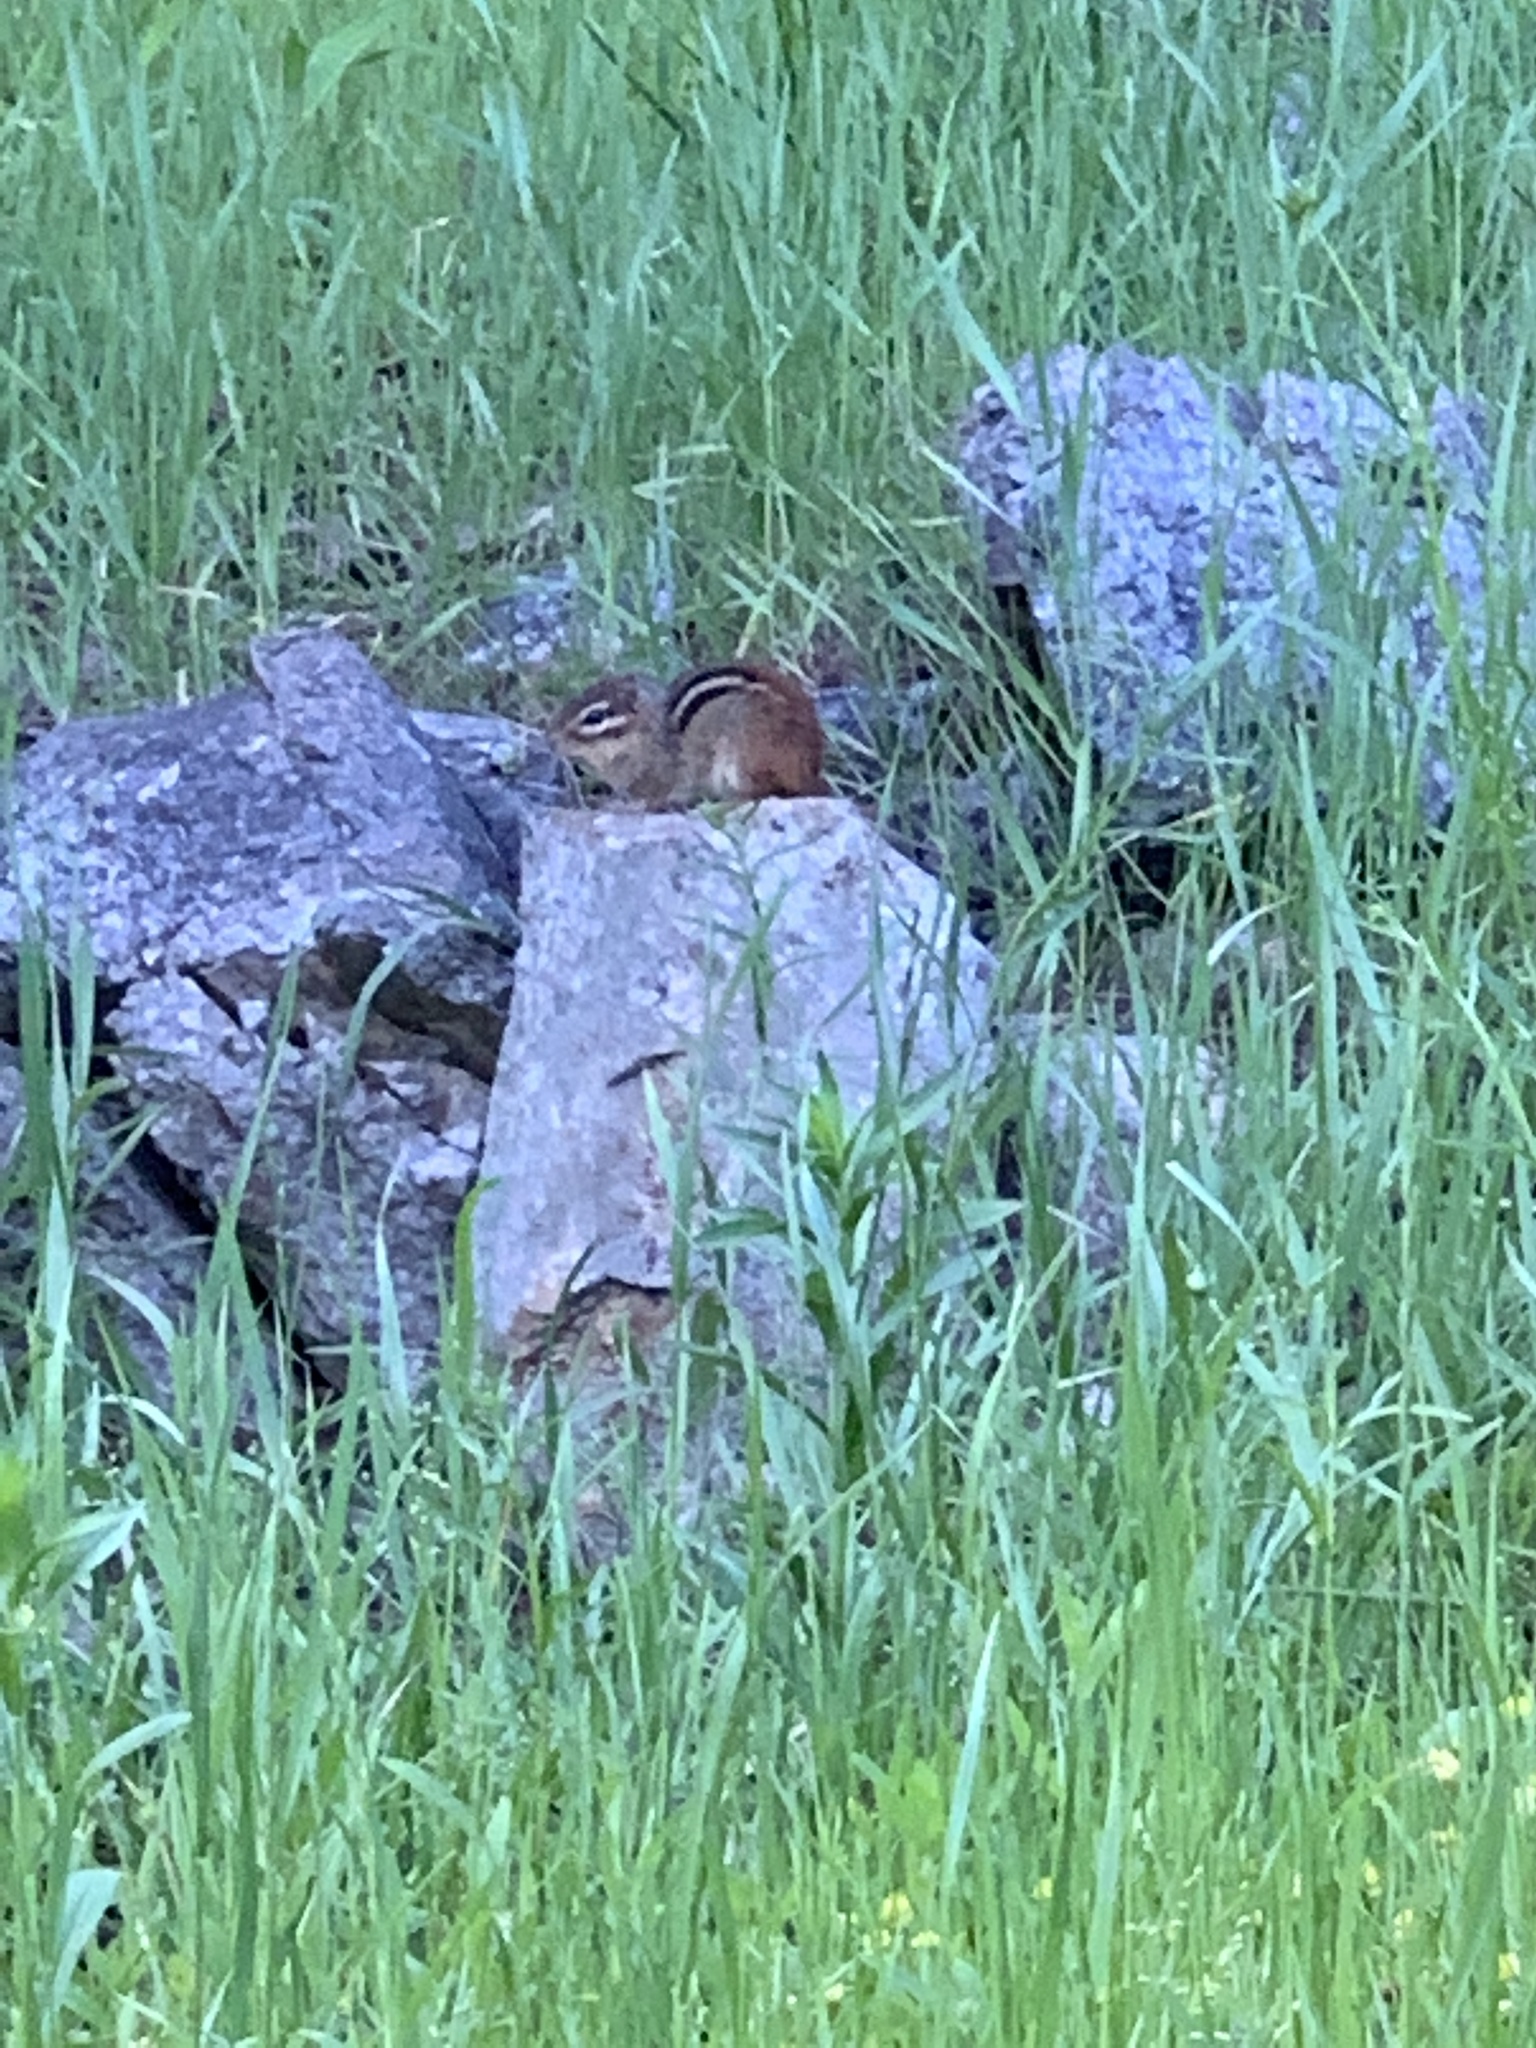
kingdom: Animalia
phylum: Chordata
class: Mammalia
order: Rodentia
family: Sciuridae
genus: Tamias
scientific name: Tamias striatus
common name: Eastern chipmunk
